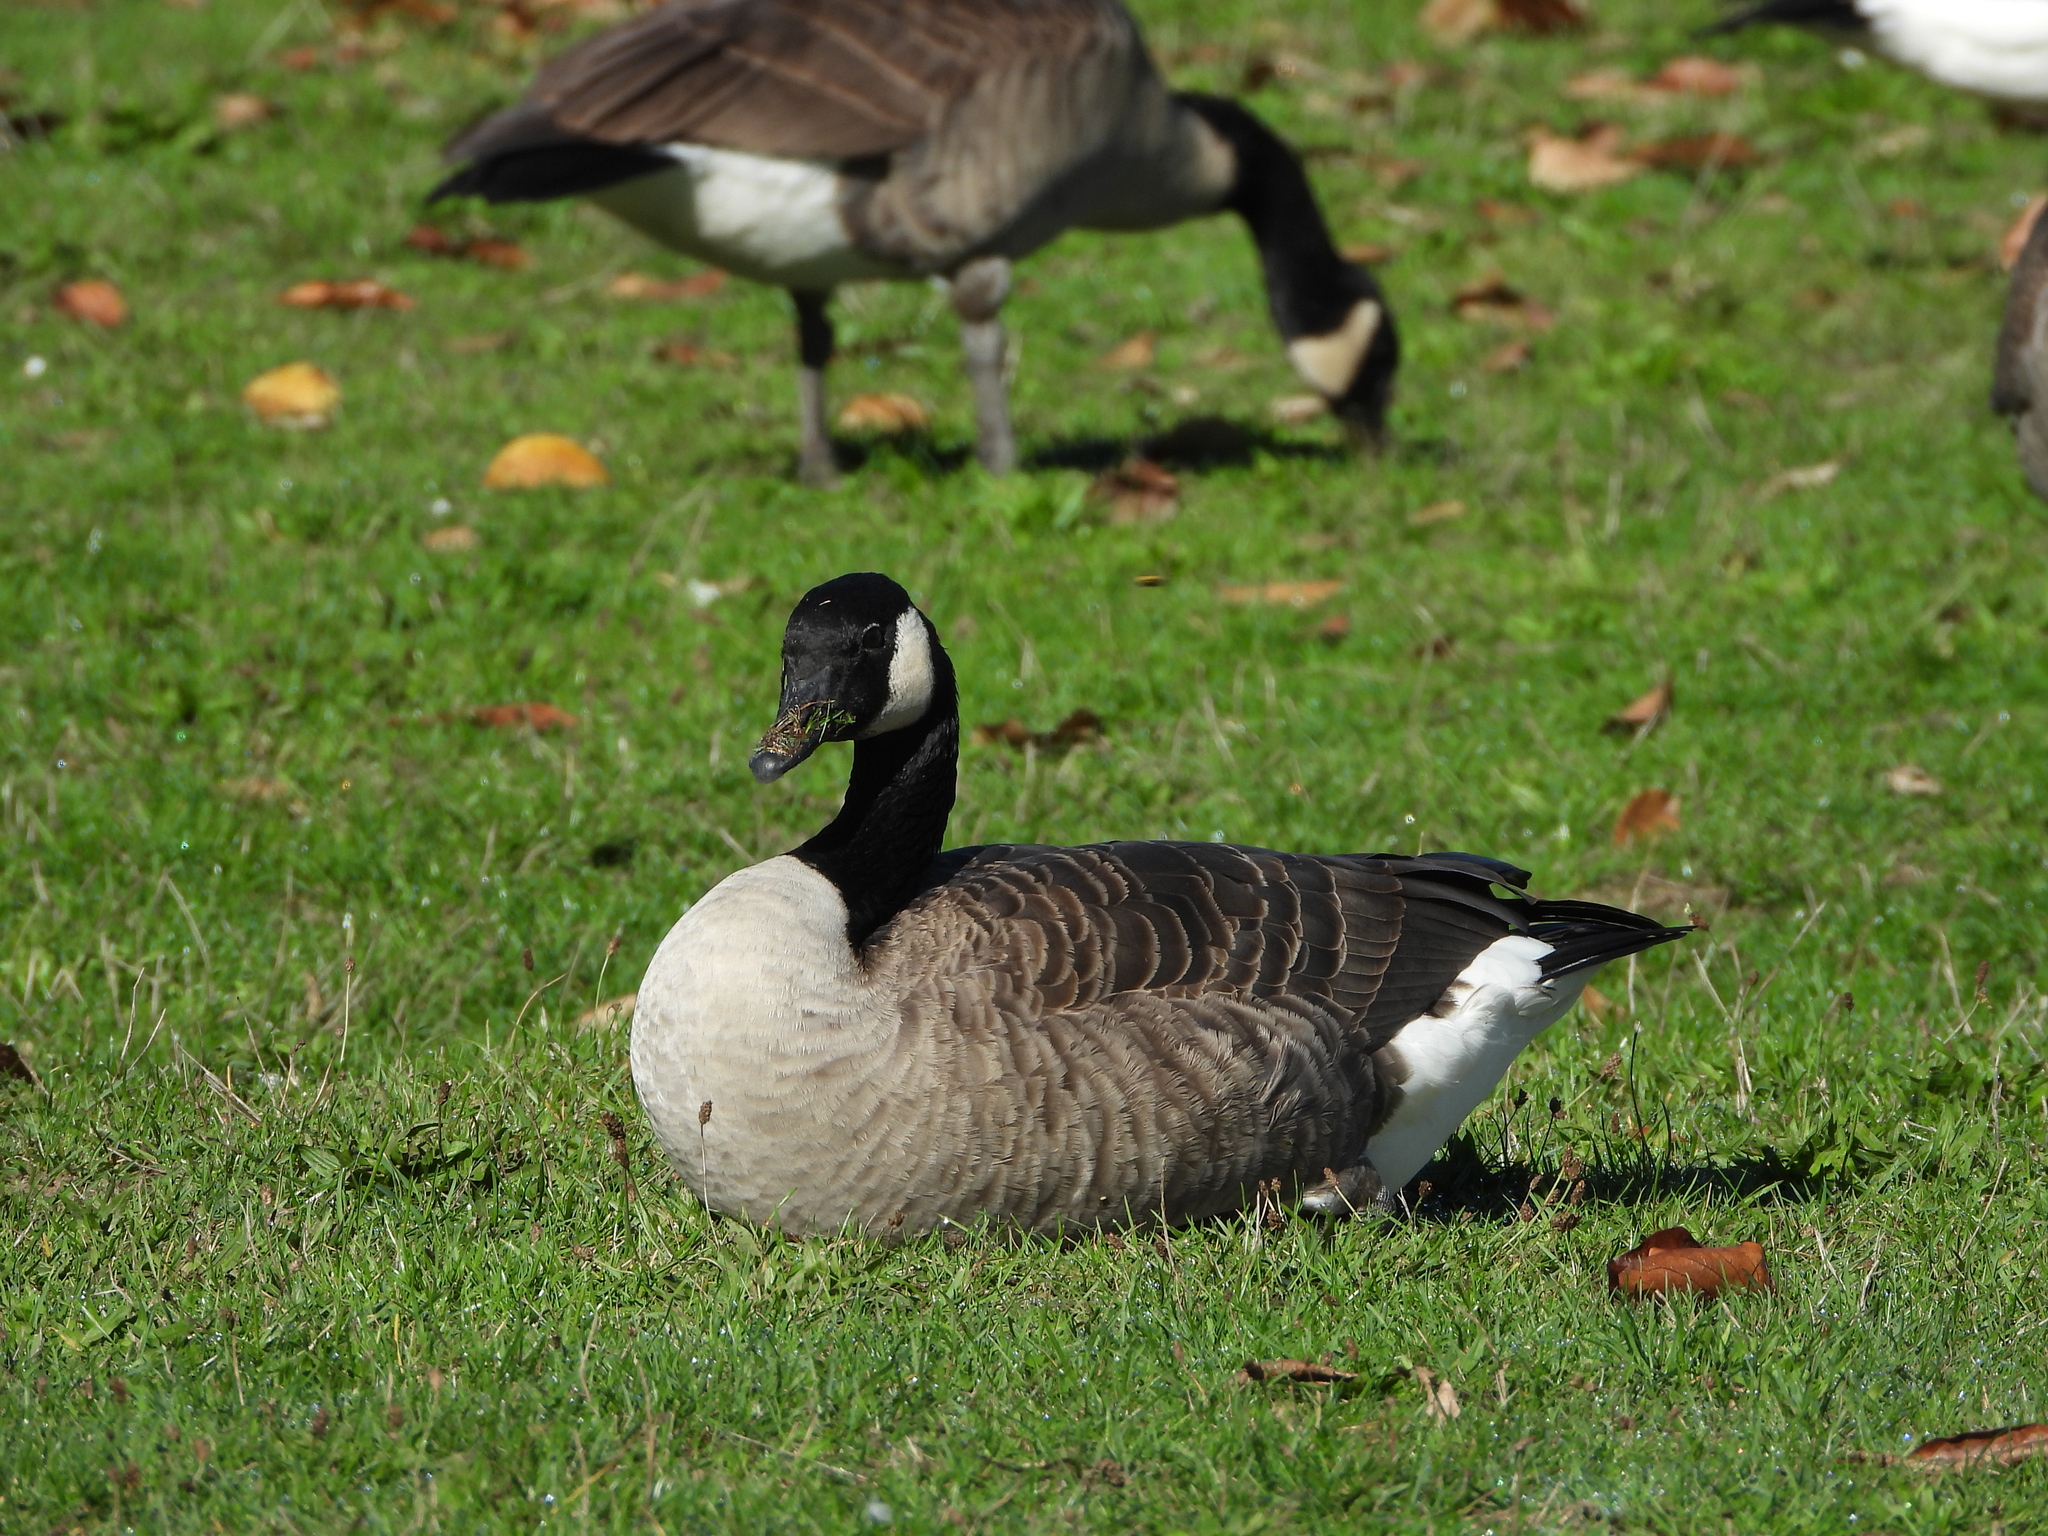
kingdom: Animalia
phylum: Chordata
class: Aves
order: Anseriformes
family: Anatidae
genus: Branta
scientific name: Branta canadensis
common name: Canada goose
